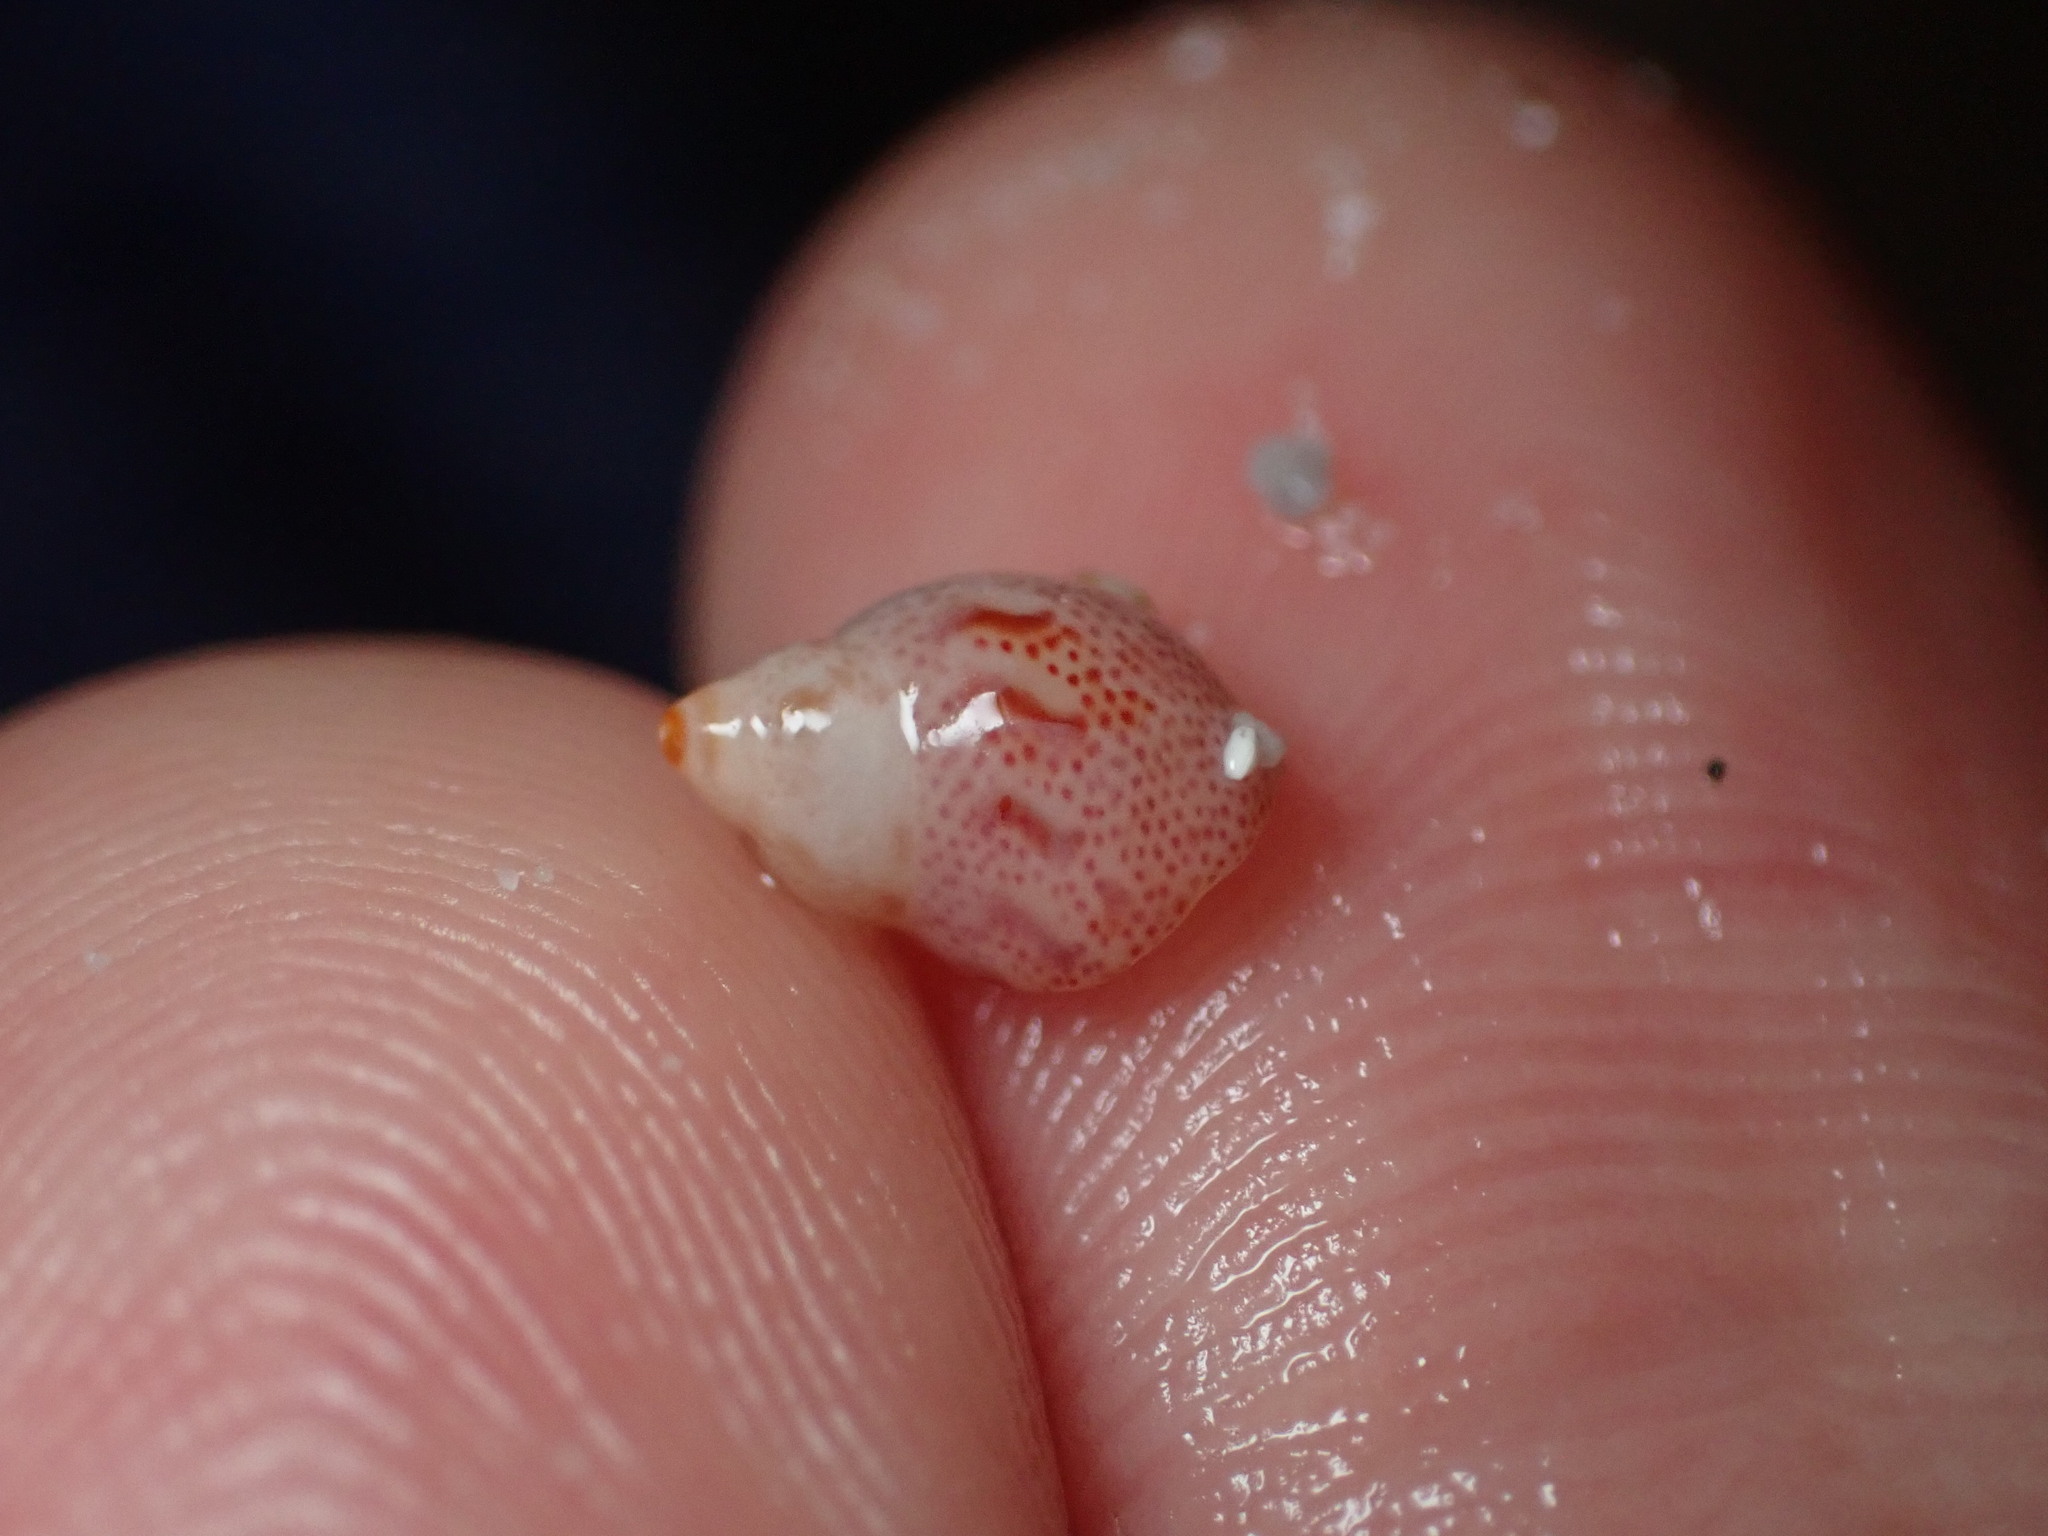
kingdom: Animalia
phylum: Mollusca
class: Gastropoda
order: Trochida
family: Phasianellidae
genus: Tricolia
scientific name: Tricolia pullus
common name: Pheasant shell
